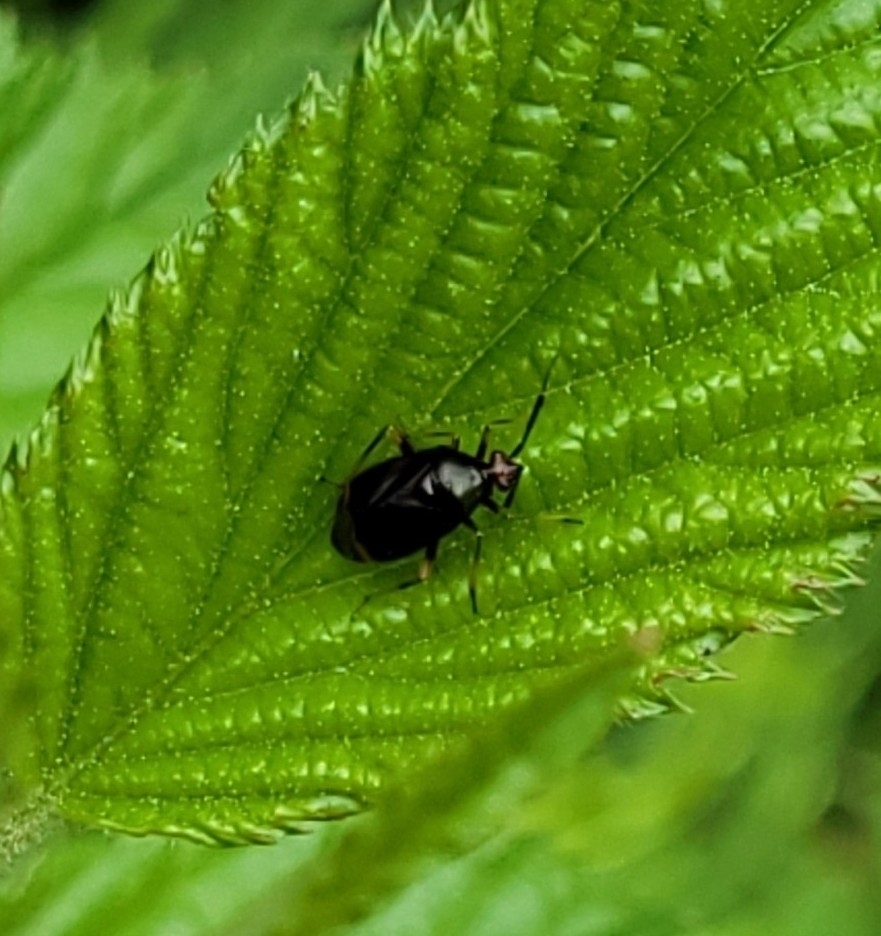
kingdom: Animalia
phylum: Arthropoda
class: Insecta
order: Hemiptera
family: Miridae
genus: Deraeocoris
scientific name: Deraeocoris ruber
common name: Plant bug
